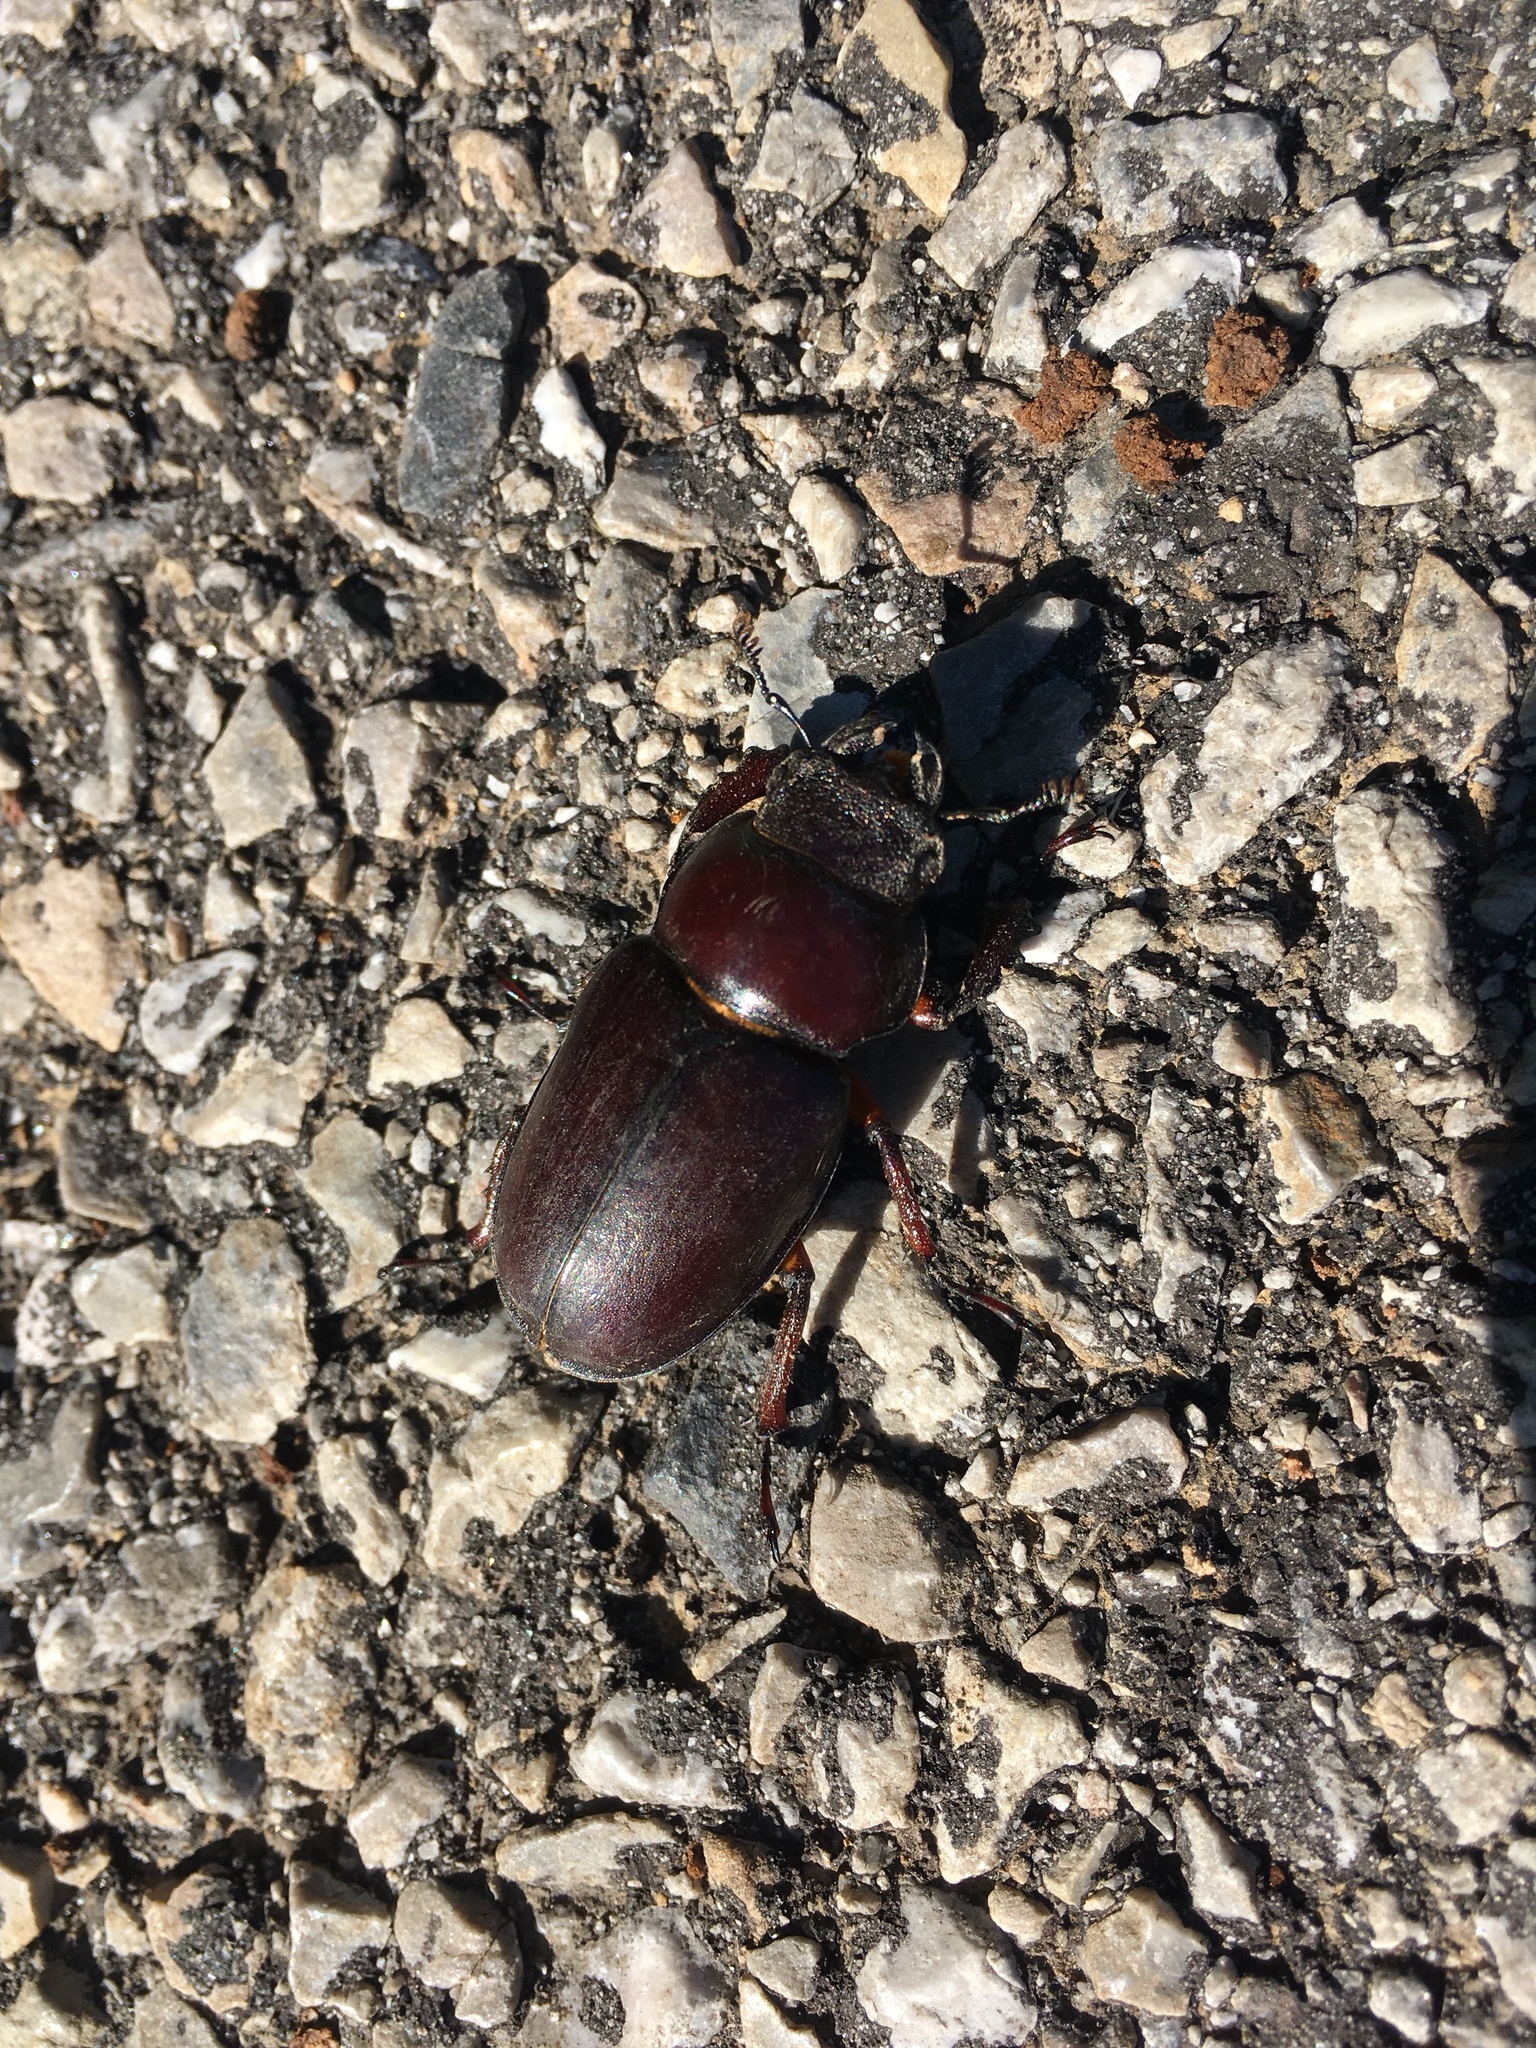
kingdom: Animalia
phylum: Arthropoda
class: Insecta
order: Coleoptera
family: Lucanidae
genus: Lucanus
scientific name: Lucanus capreolus
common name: Stag beetle
